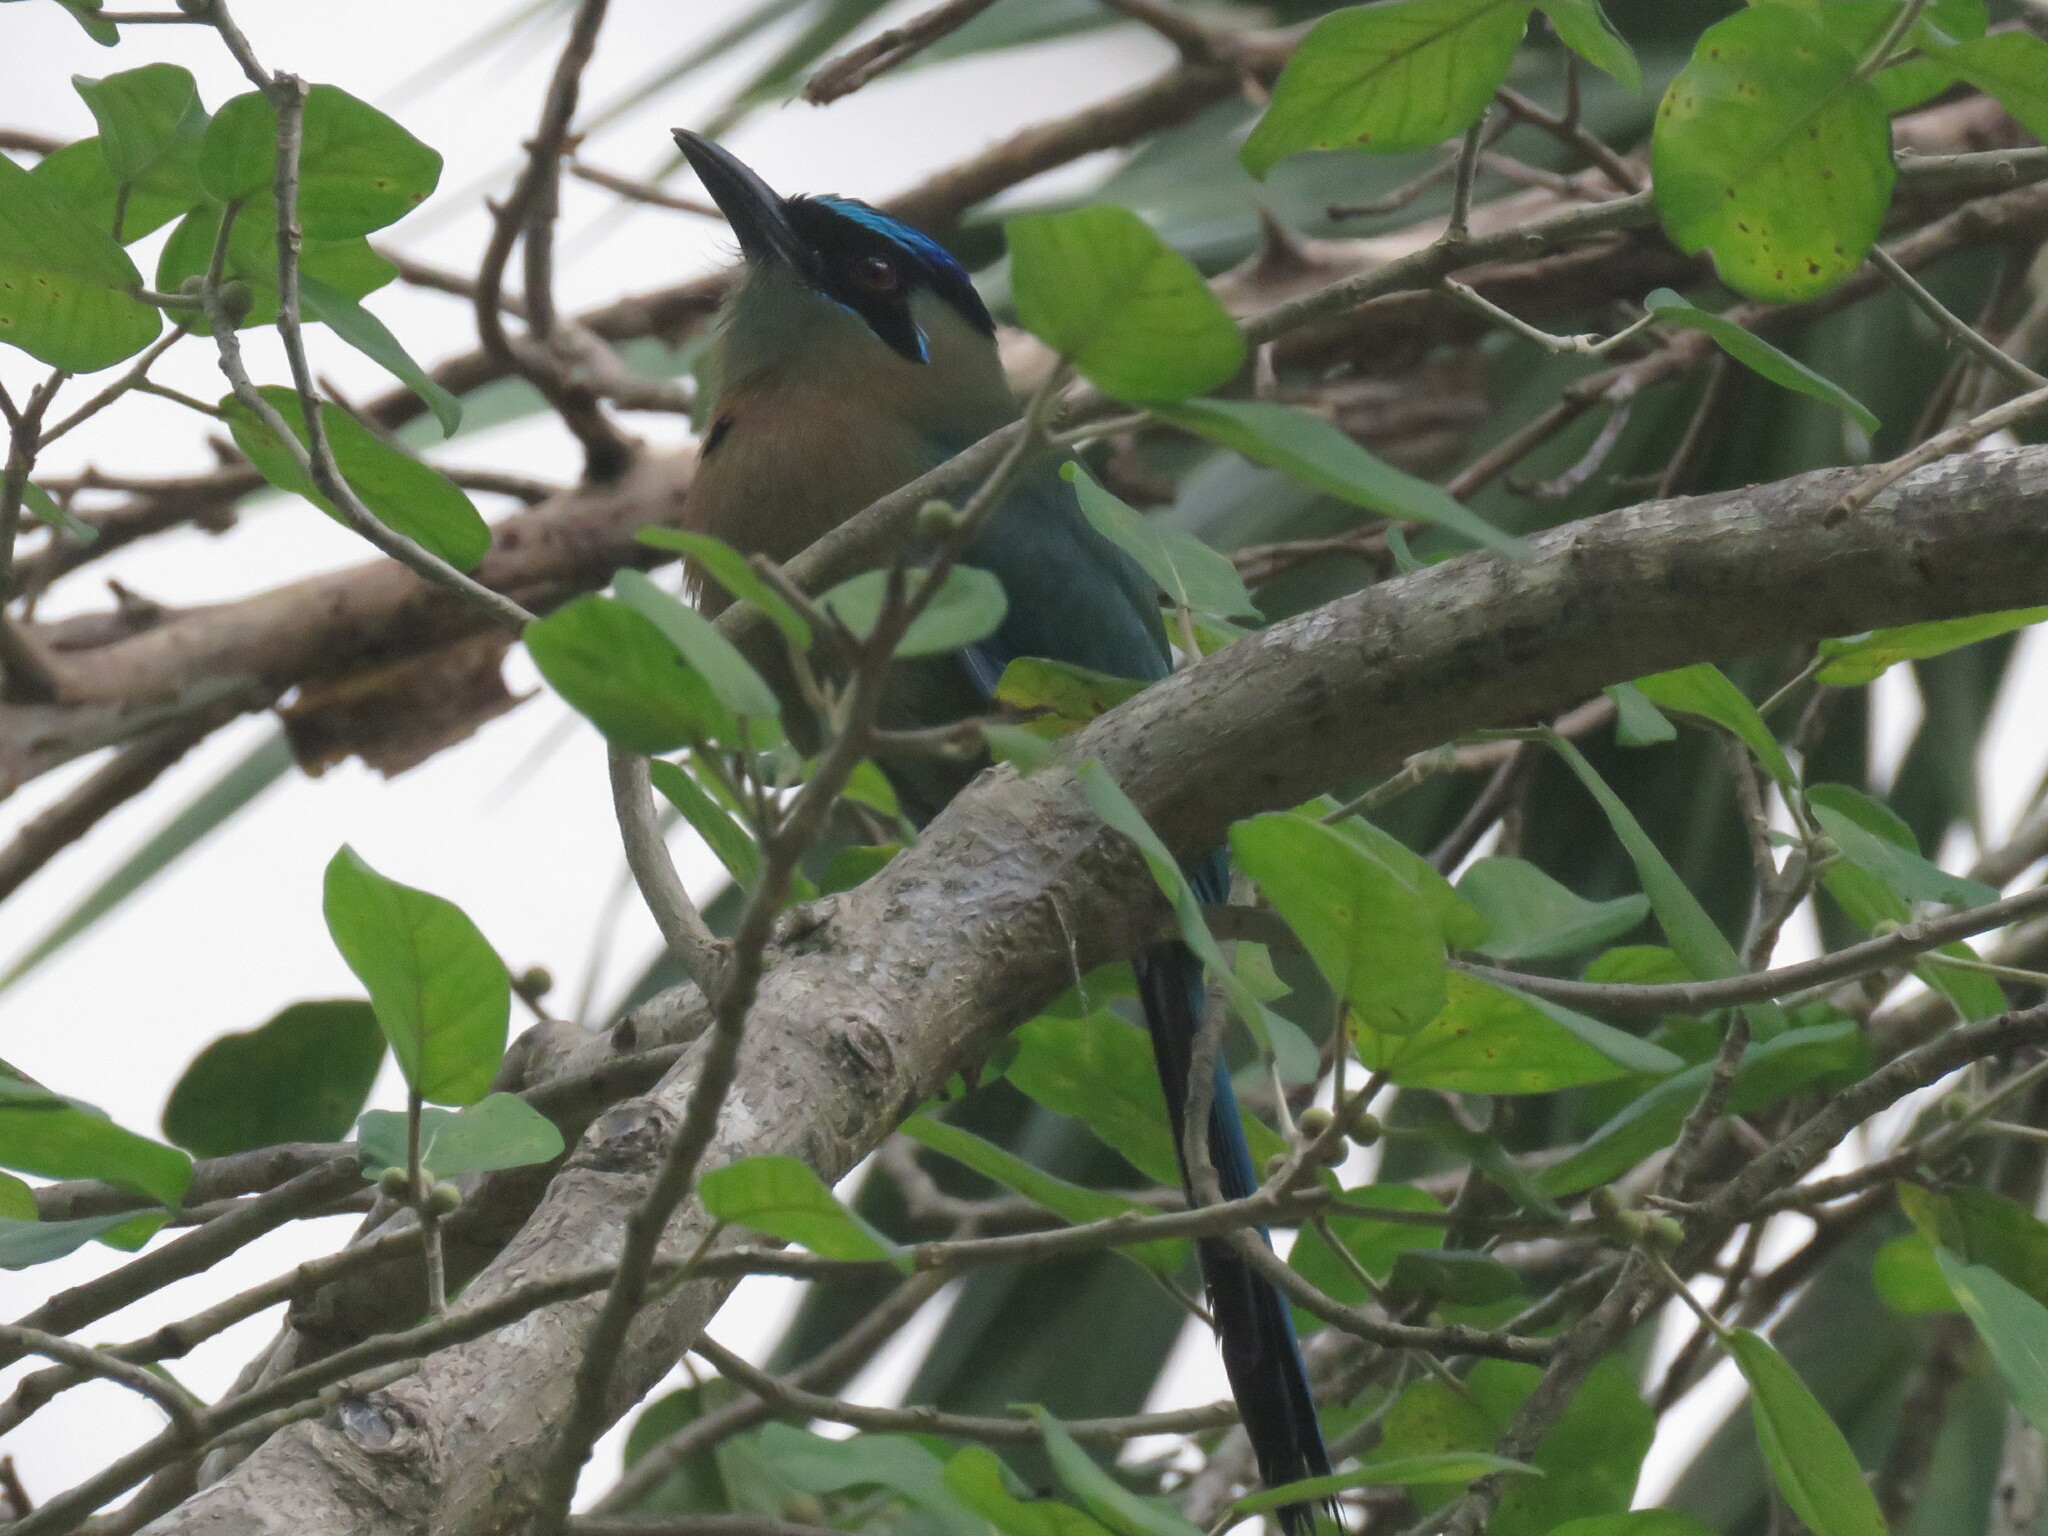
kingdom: Animalia
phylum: Chordata
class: Aves
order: Coraciiformes
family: Momotidae
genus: Momotus
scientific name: Momotus lessonii
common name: Lesson's motmot
